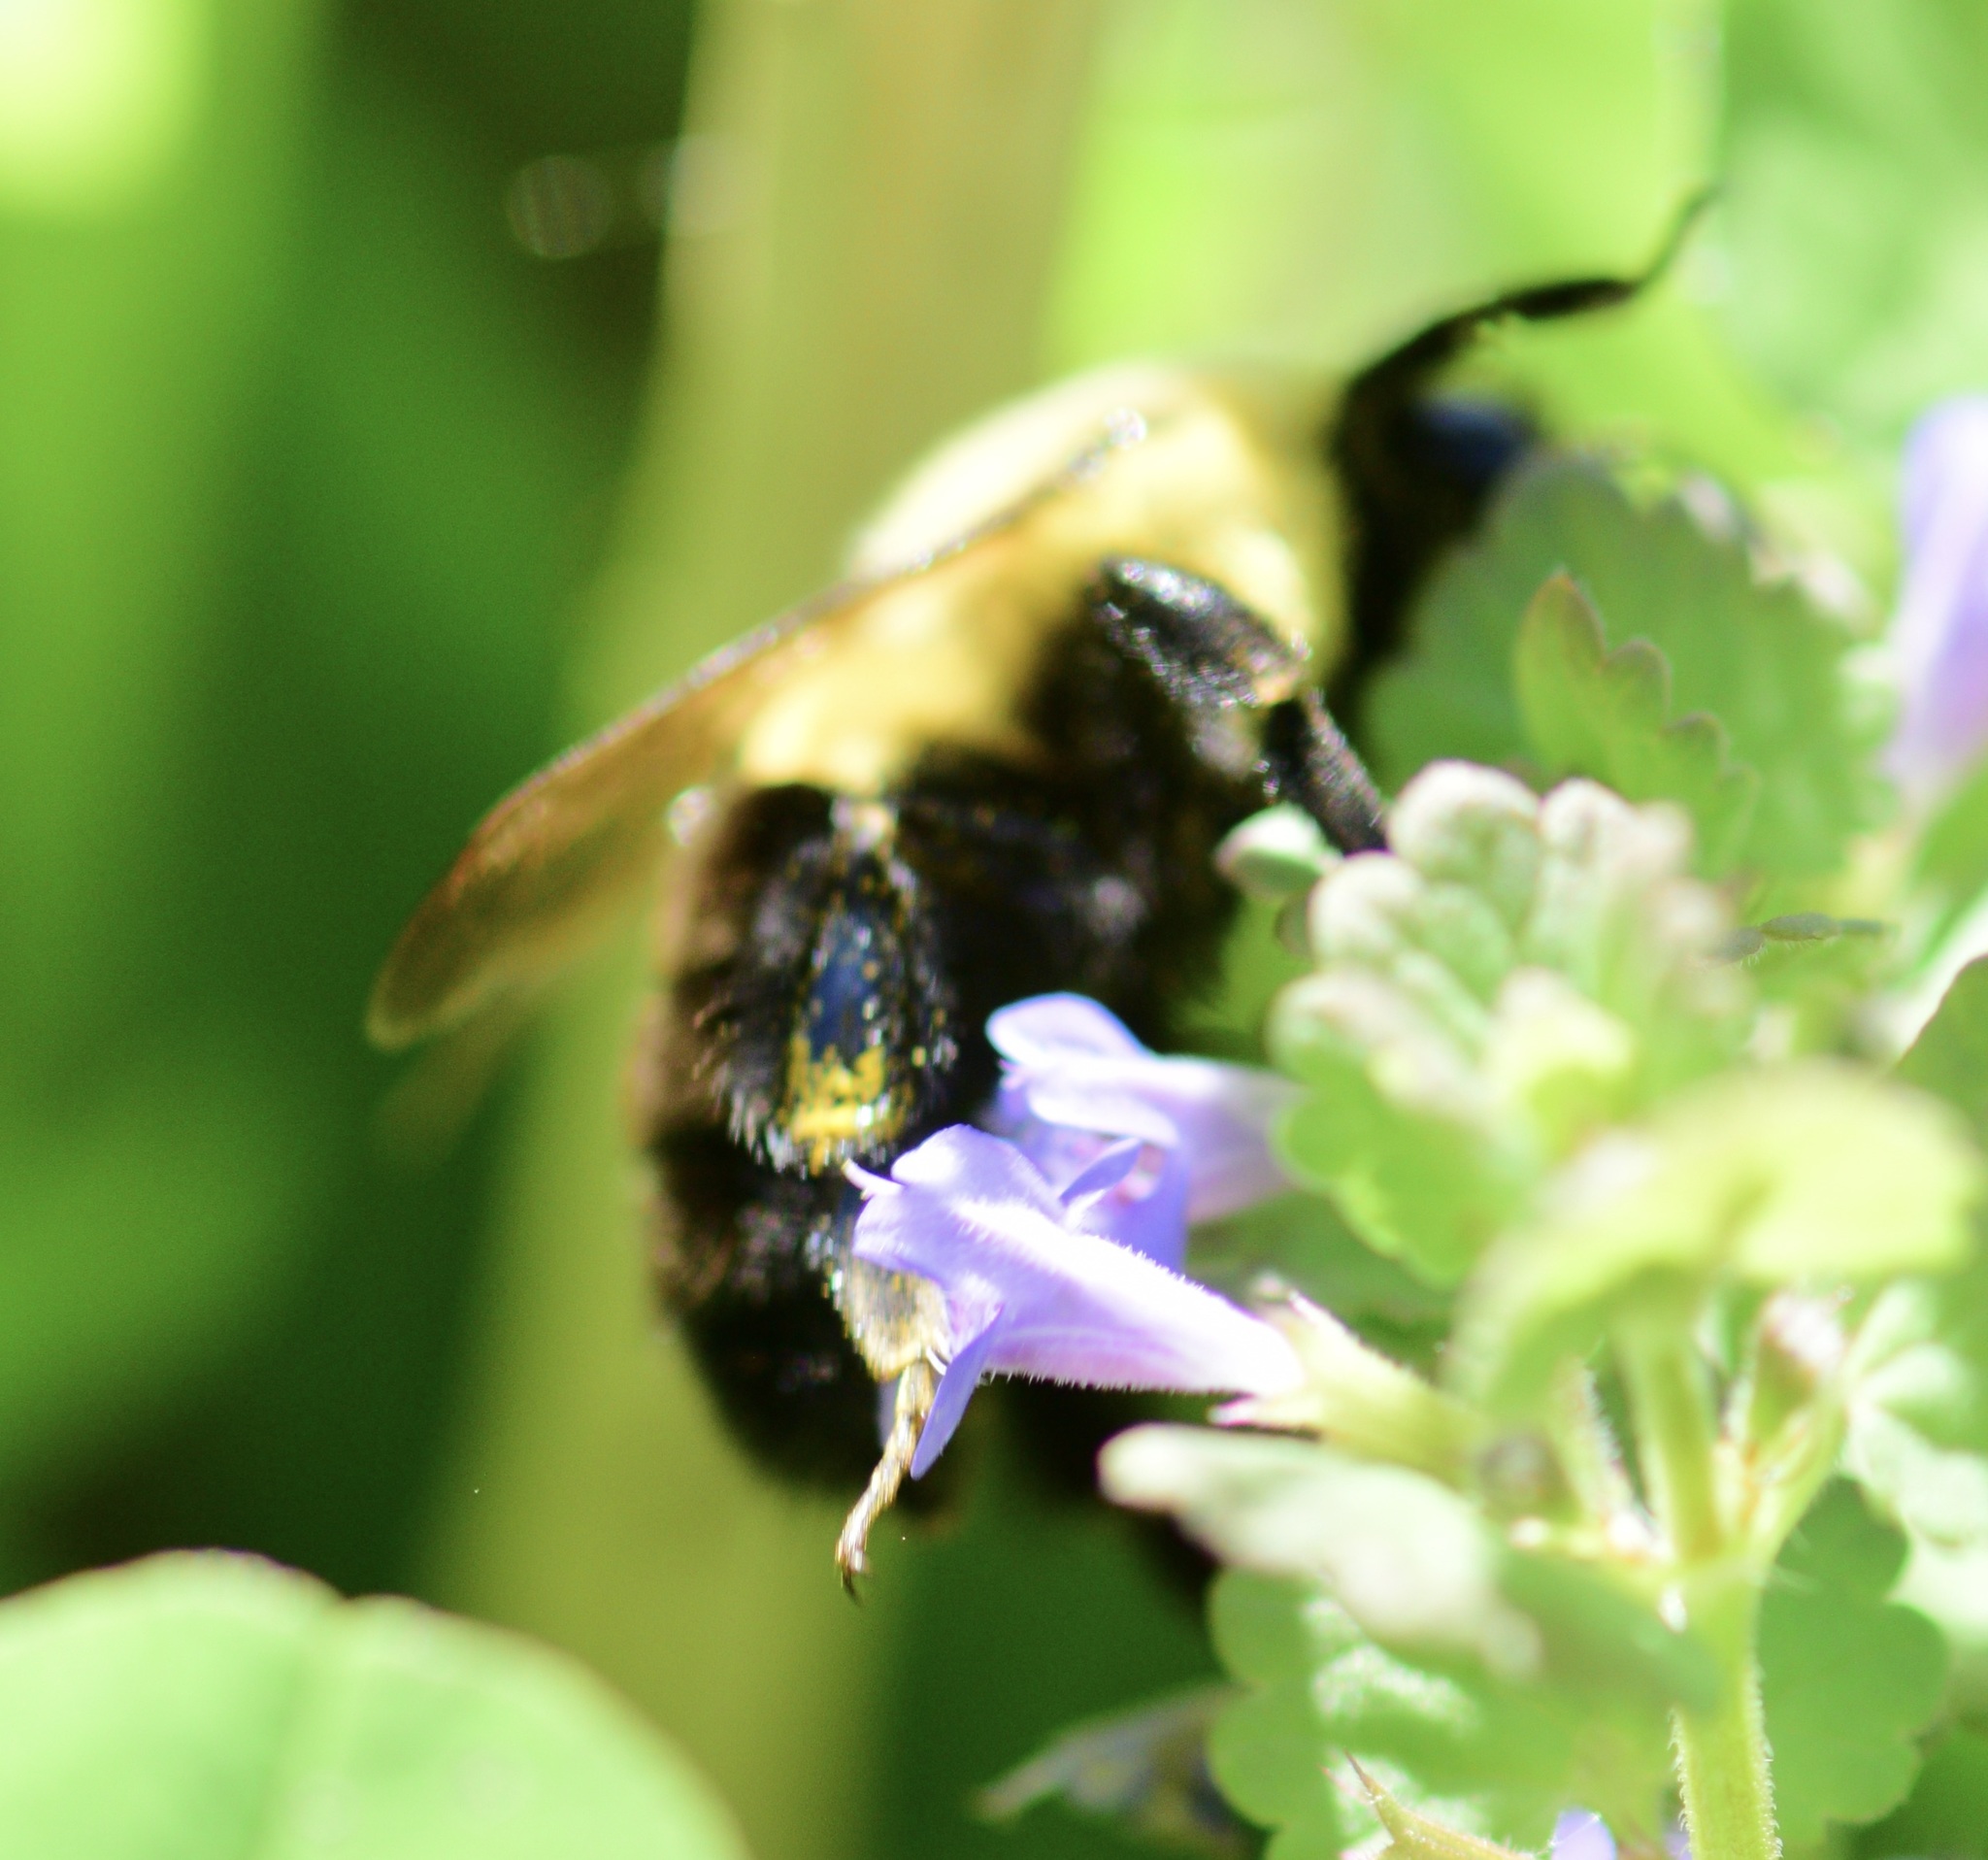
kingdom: Animalia
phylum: Arthropoda
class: Insecta
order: Hymenoptera
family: Apidae
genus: Bombus
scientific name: Bombus impatiens
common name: Common eastern bumble bee
